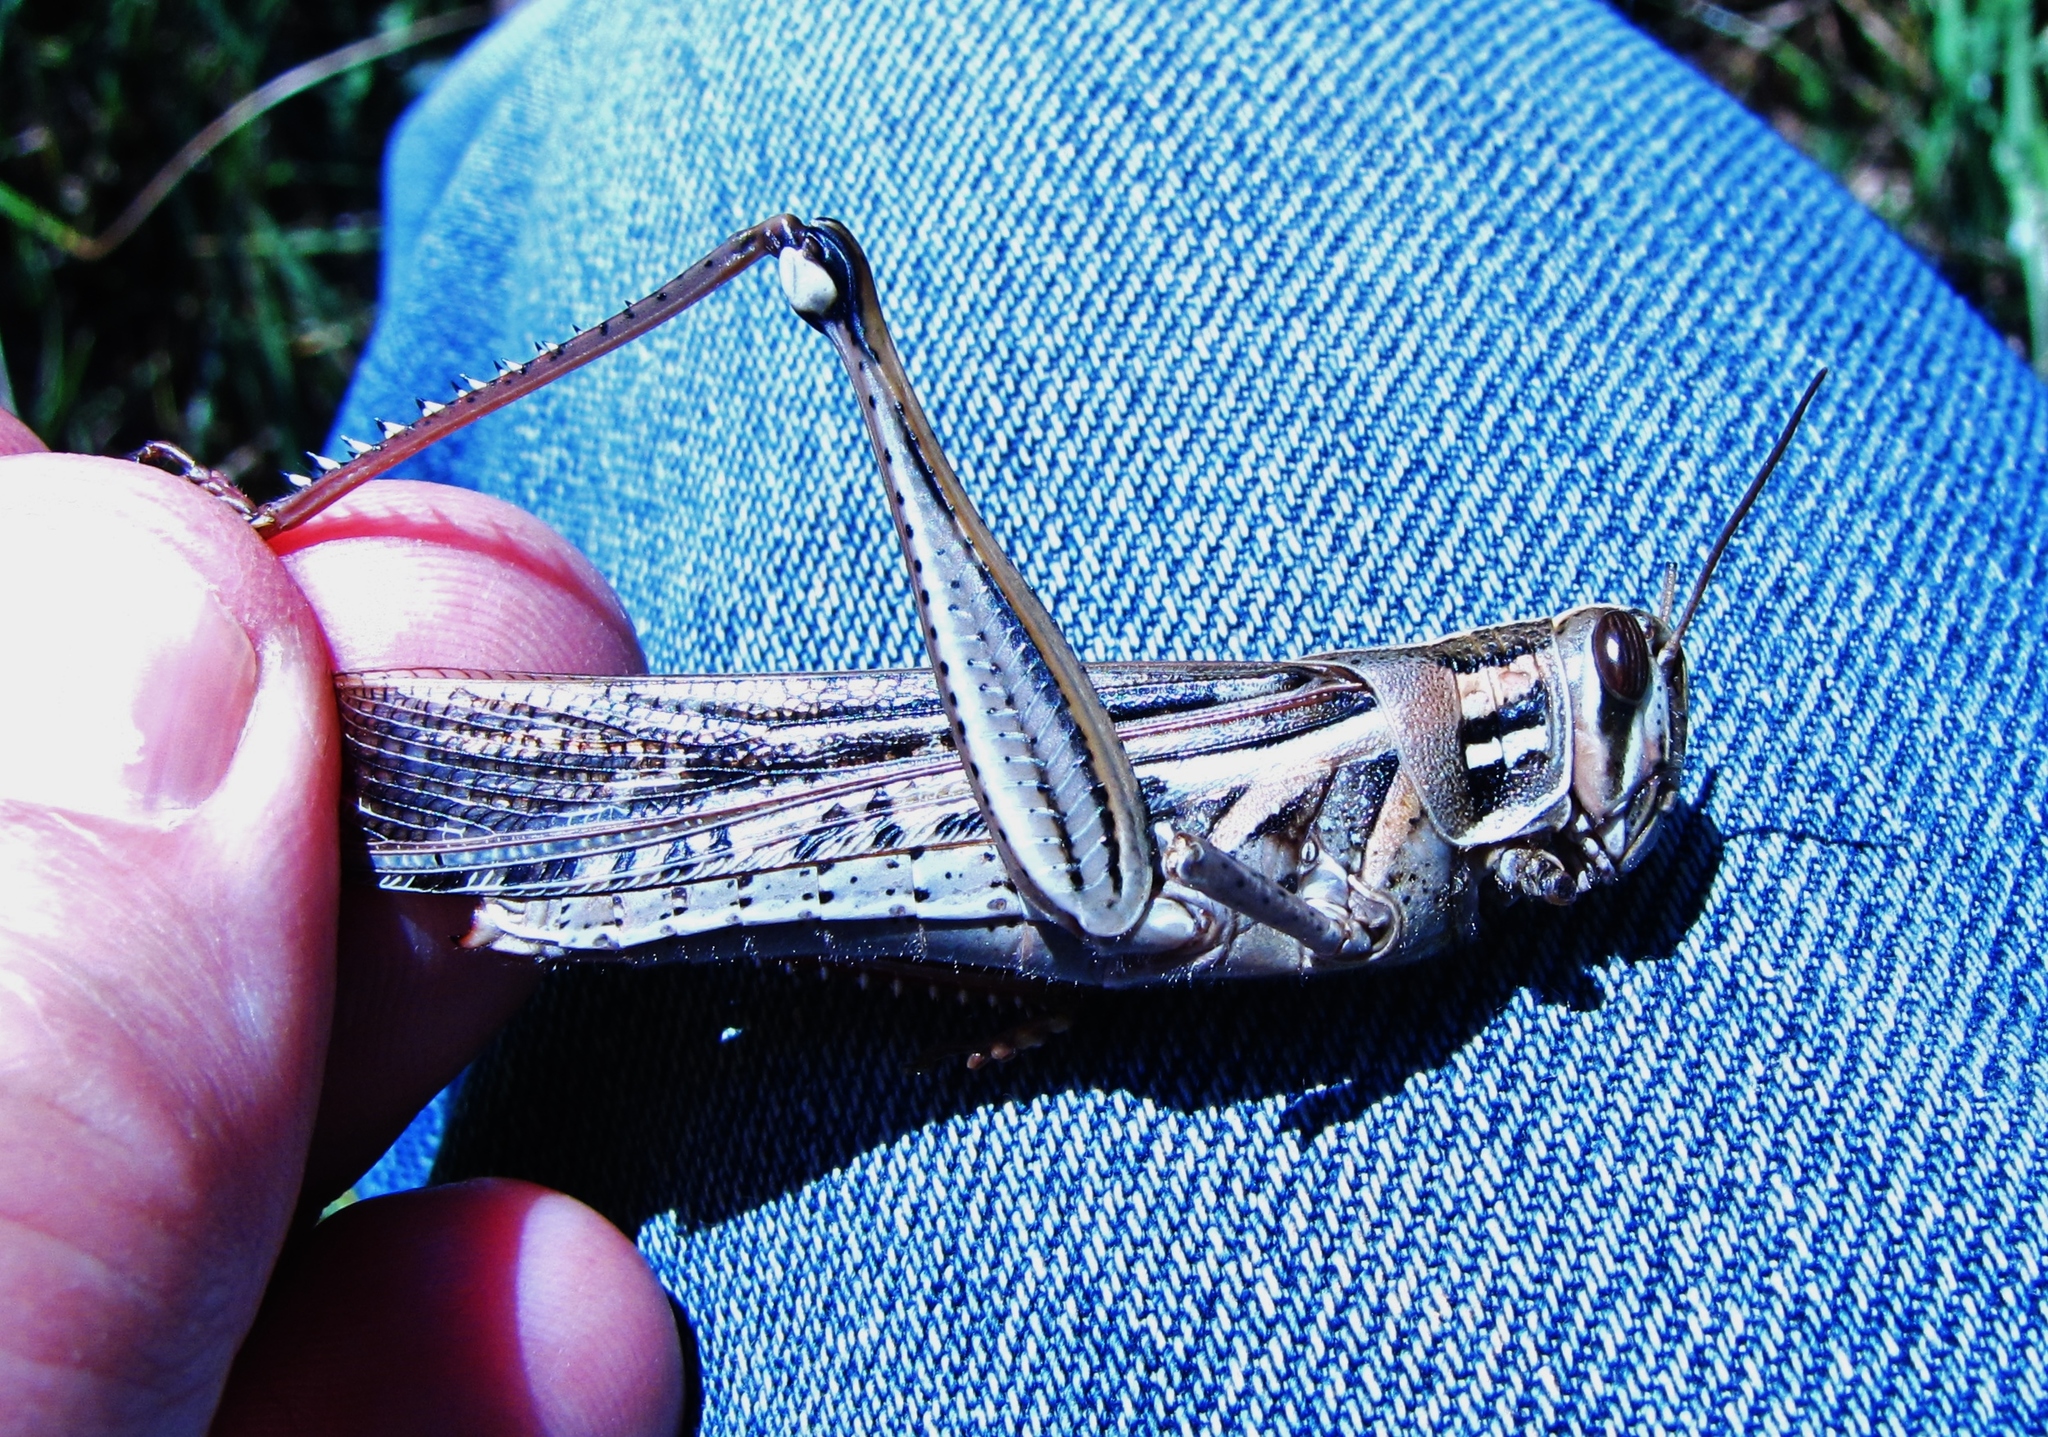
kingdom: Animalia
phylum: Arthropoda
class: Insecta
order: Orthoptera
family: Acrididae
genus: Schistocerca
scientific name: Schistocerca americana
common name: American bird locust
